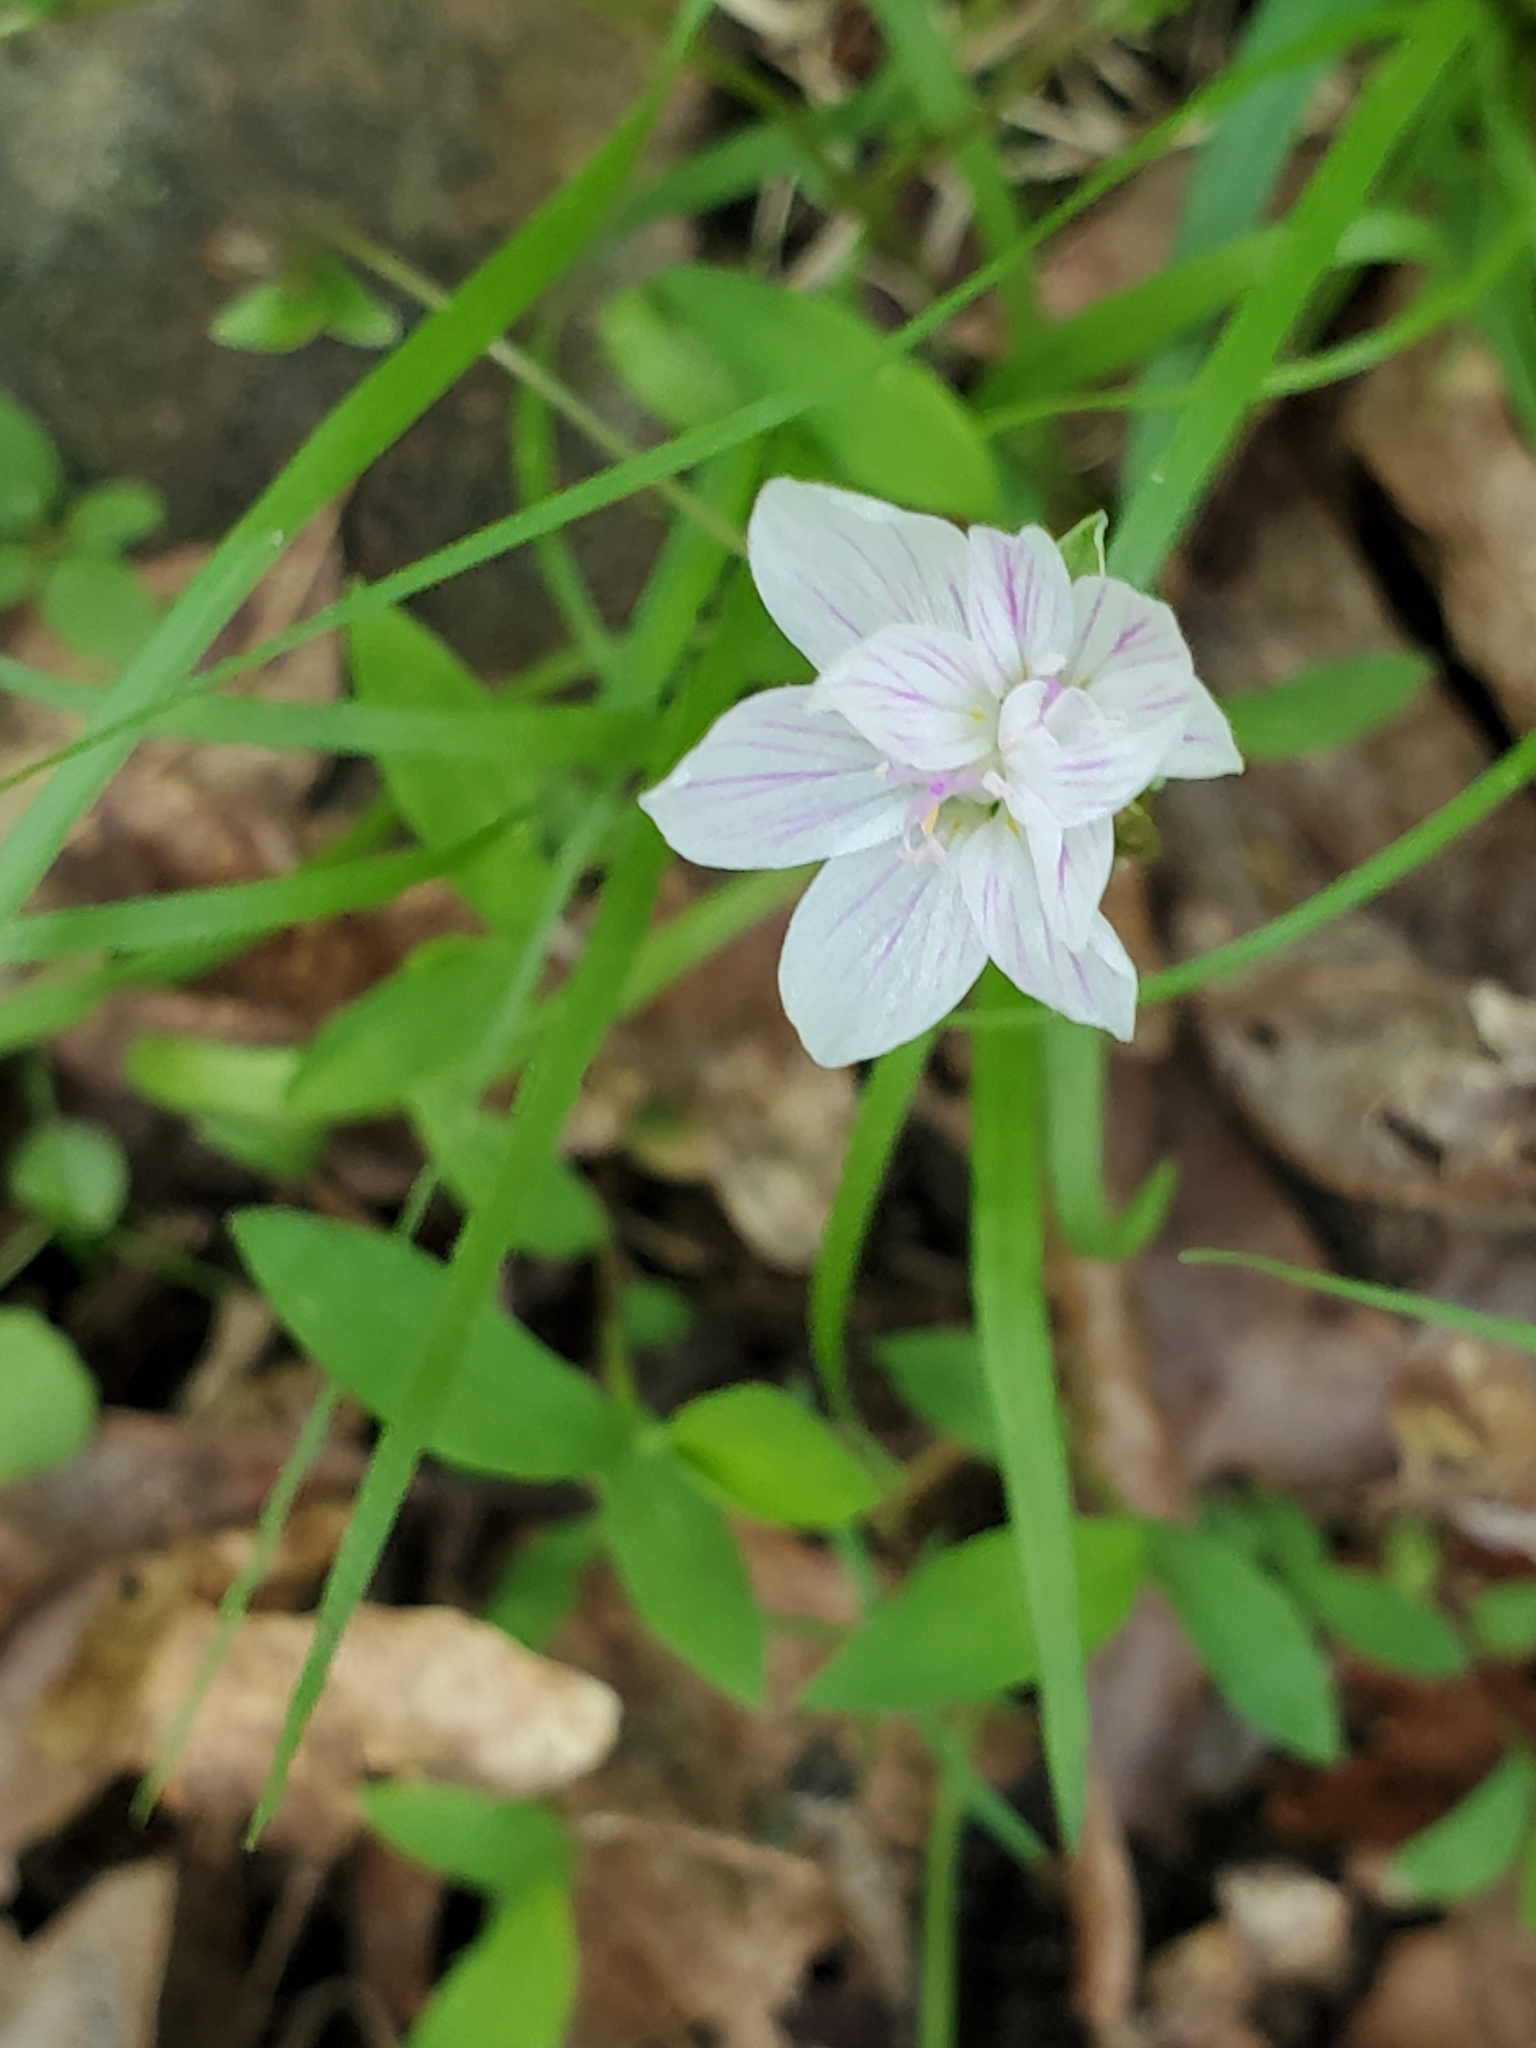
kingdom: Plantae
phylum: Tracheophyta
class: Magnoliopsida
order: Caryophyllales
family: Montiaceae
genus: Claytonia
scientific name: Claytonia virginica
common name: Virginia springbeauty
